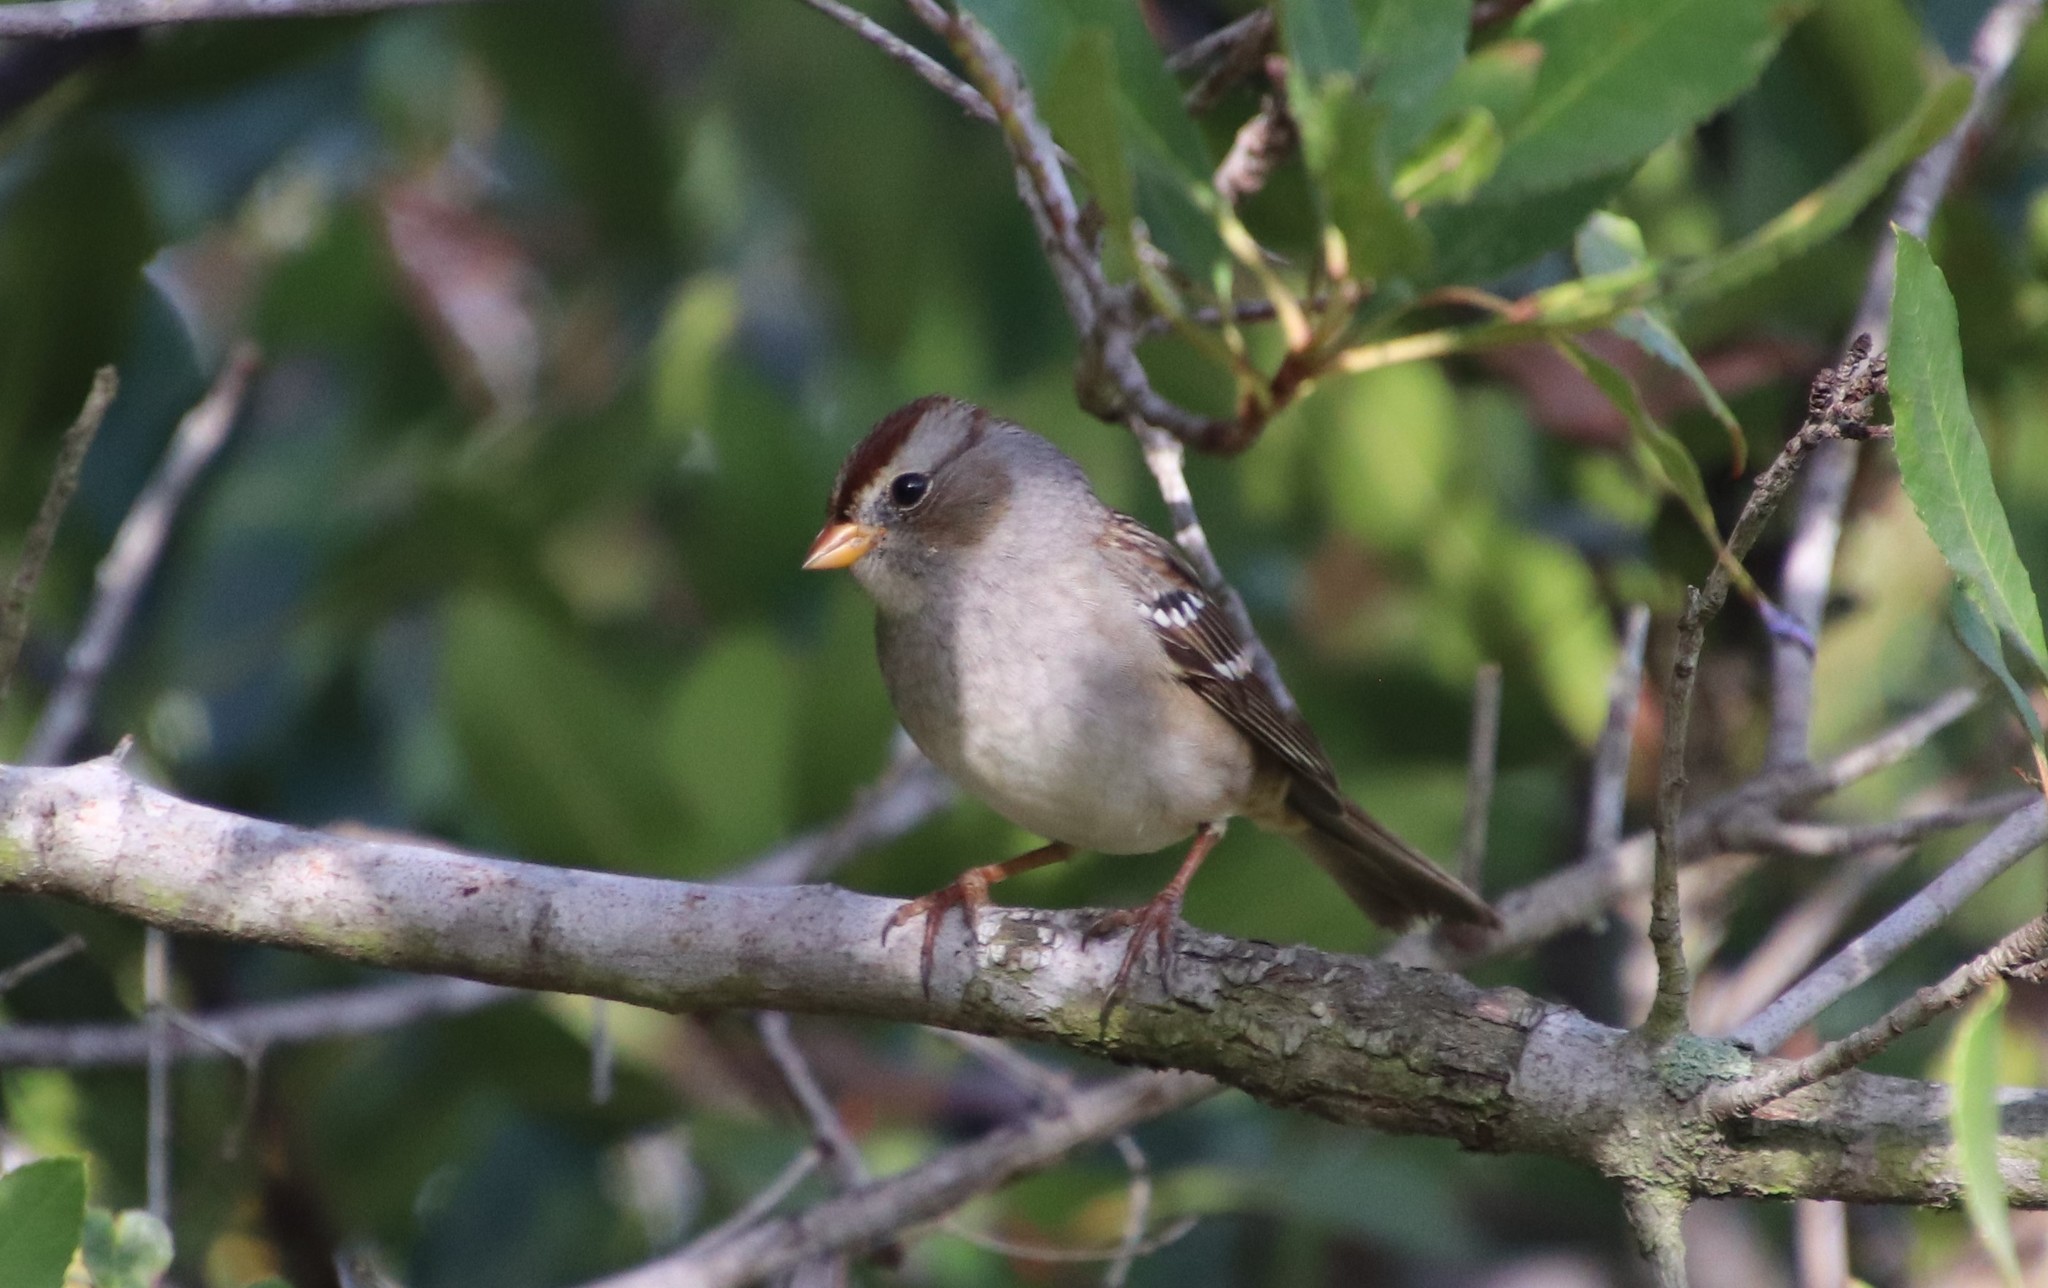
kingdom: Animalia
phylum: Chordata
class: Aves
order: Passeriformes
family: Passerellidae
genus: Zonotrichia
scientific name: Zonotrichia leucophrys
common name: White-crowned sparrow
